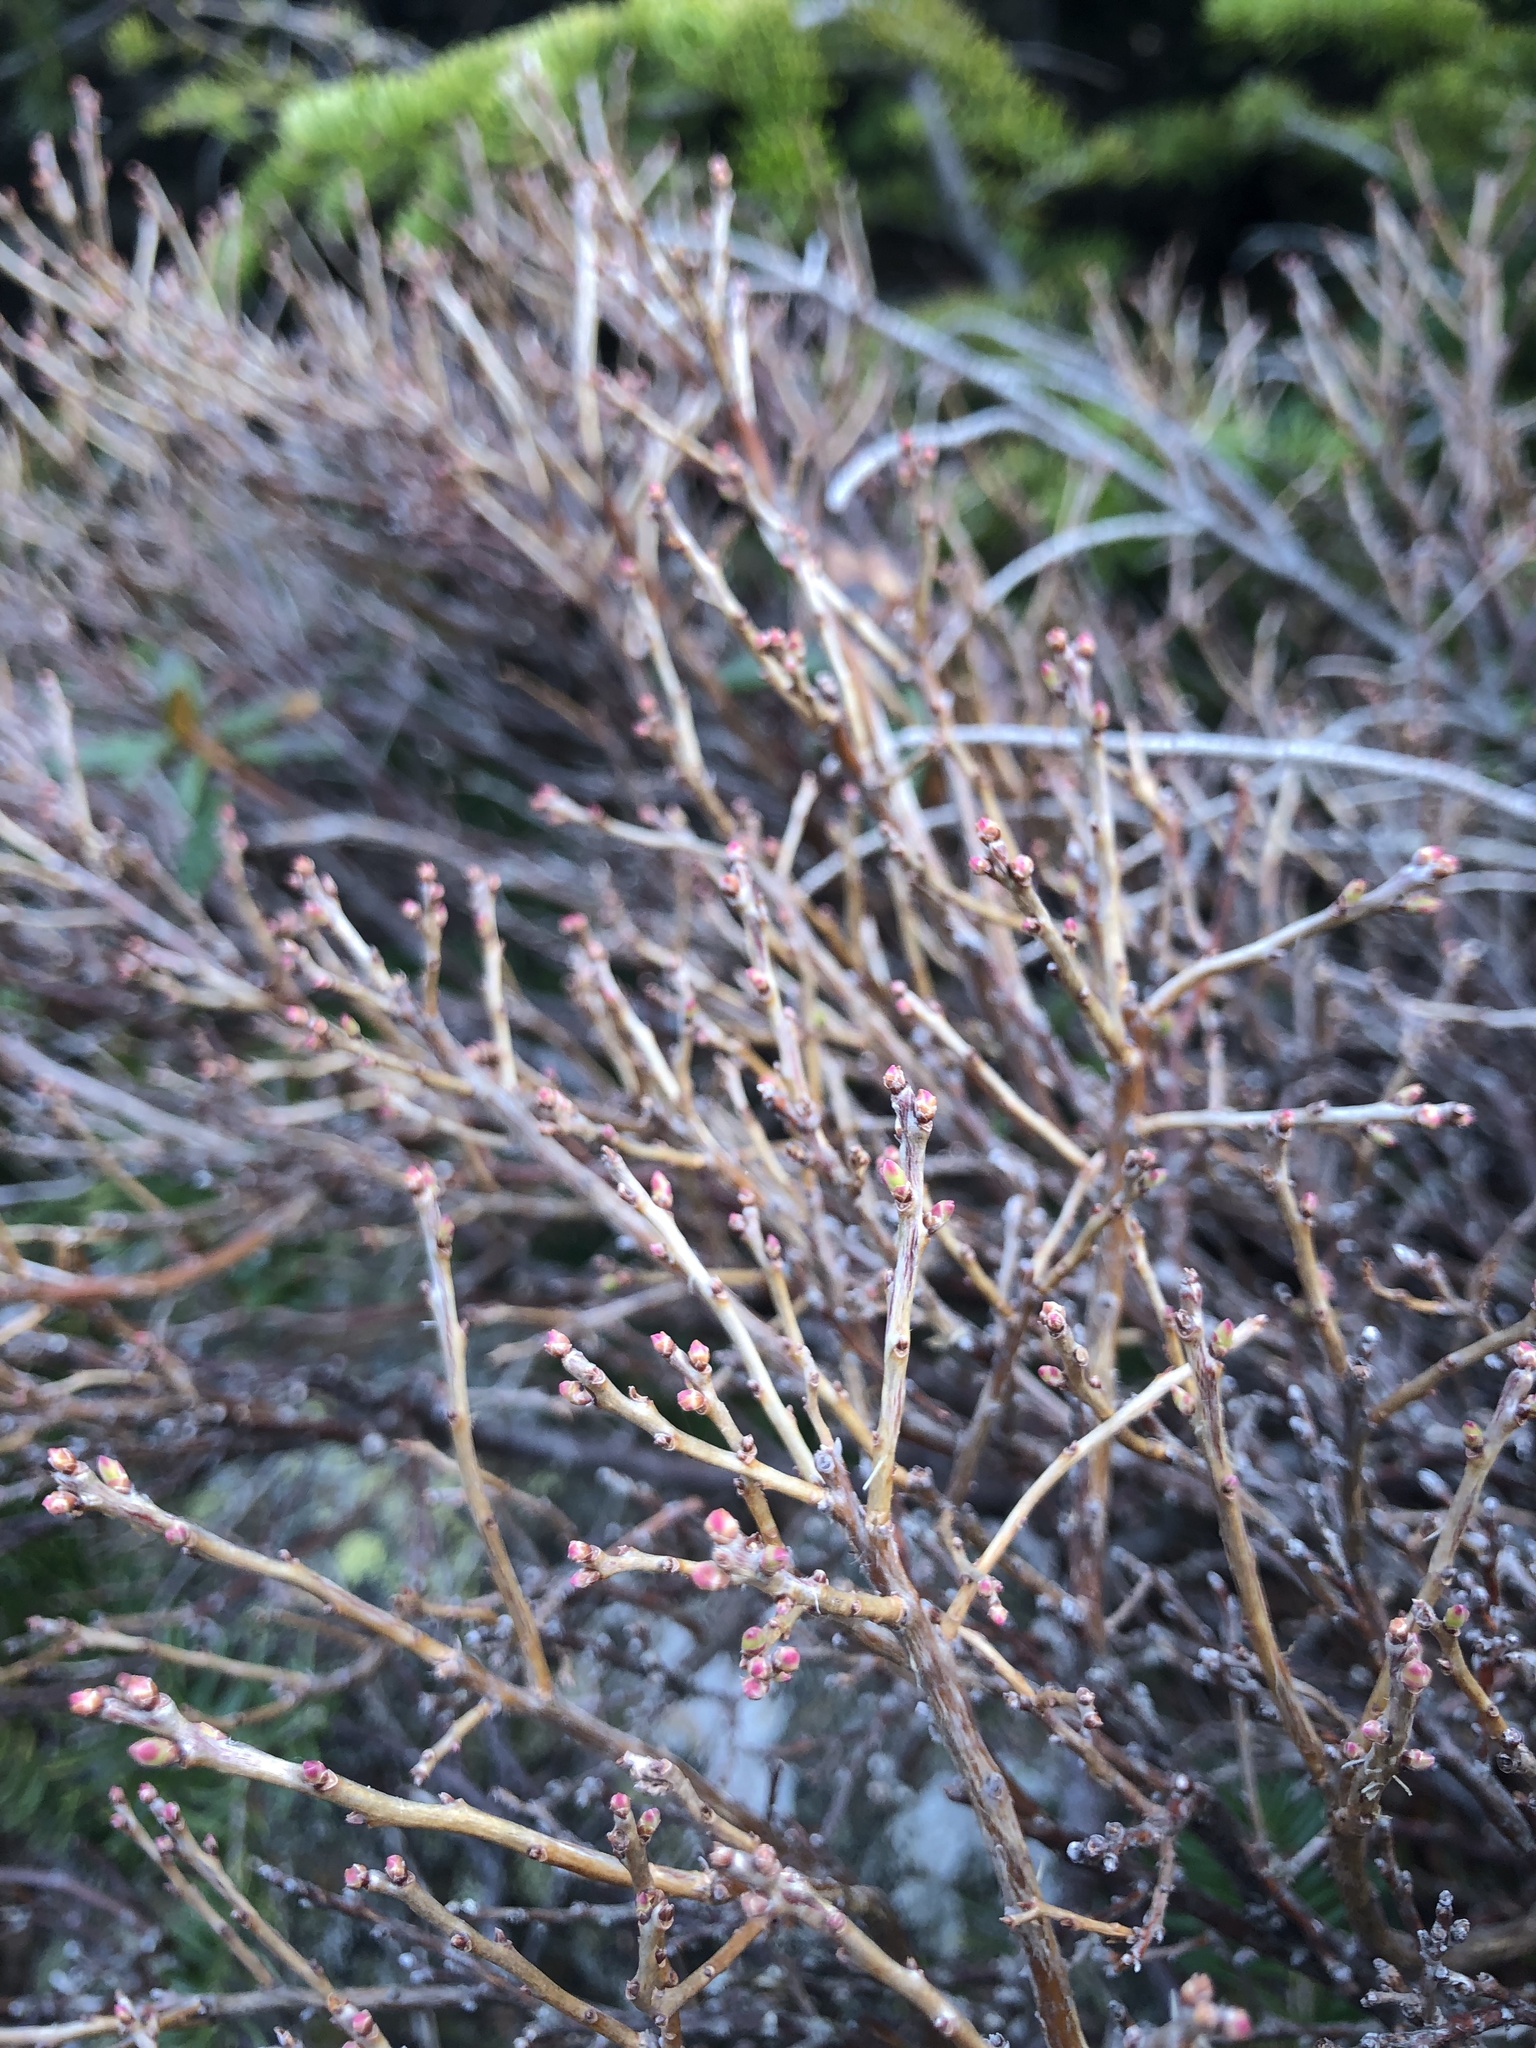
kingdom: Plantae
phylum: Tracheophyta
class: Magnoliopsida
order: Ericales
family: Ericaceae
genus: Vaccinium
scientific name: Vaccinium uliginosum
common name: Bog bilberry
